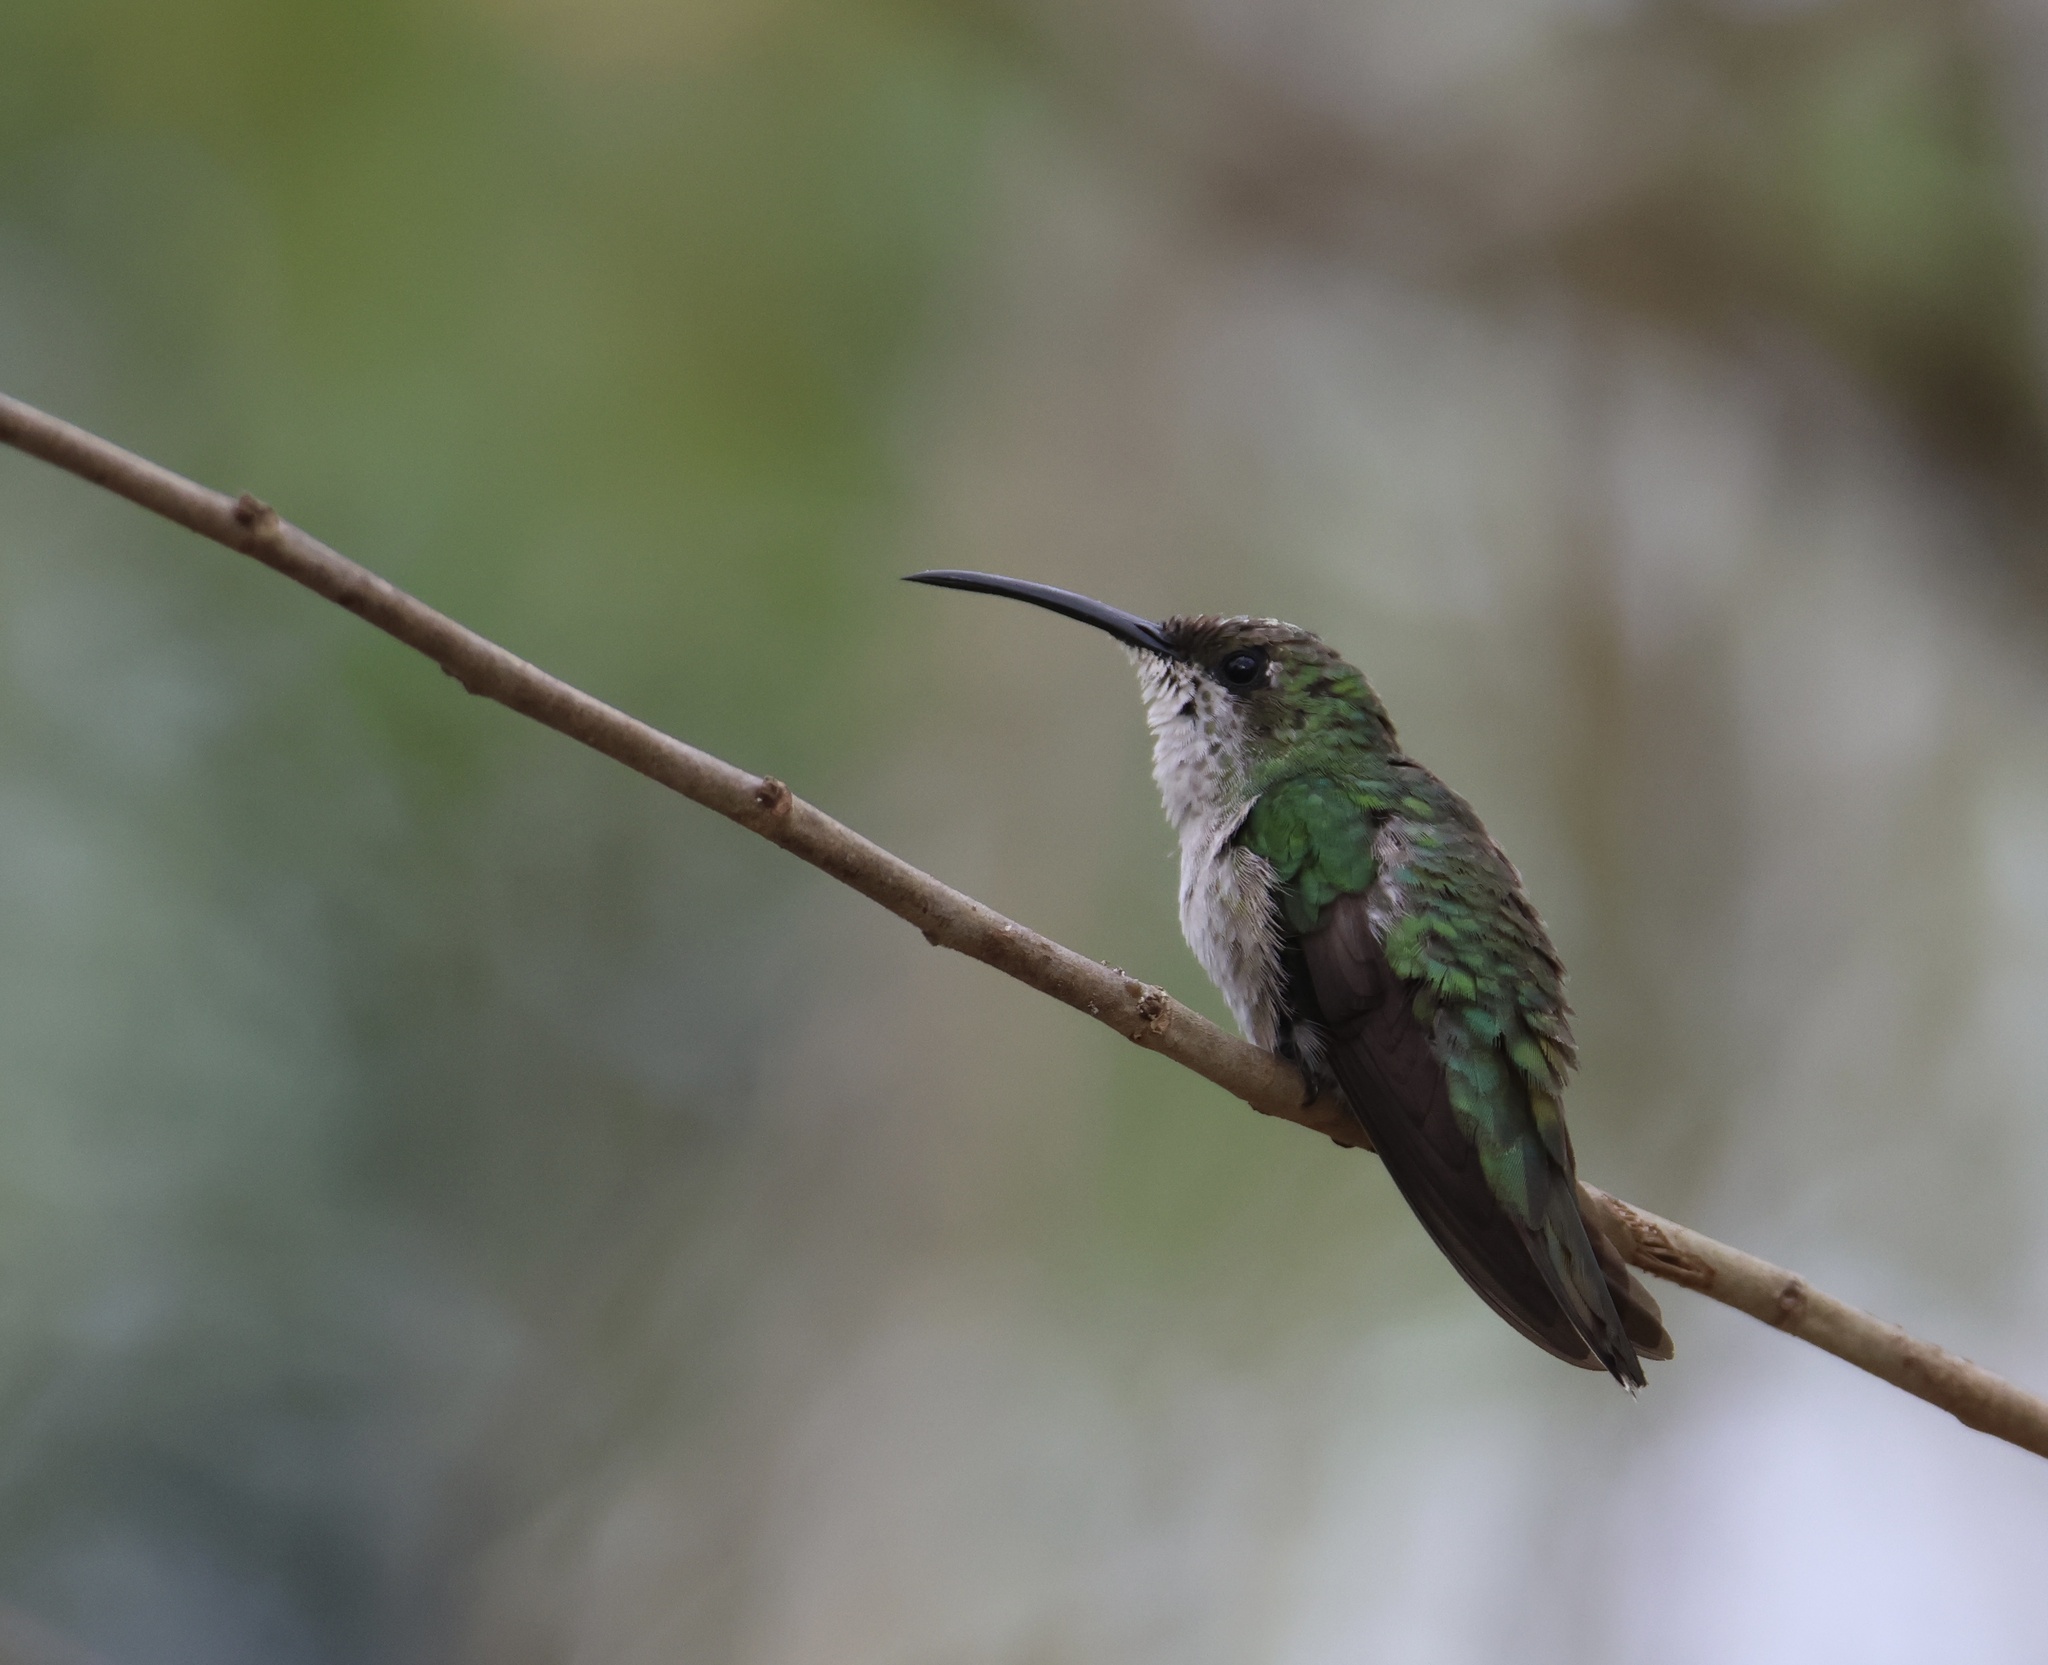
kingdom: Animalia
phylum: Chordata
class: Aves
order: Apodiformes
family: Trochilidae
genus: Anthracothorax
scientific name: Anthracothorax dominicus
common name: Antillean mango
